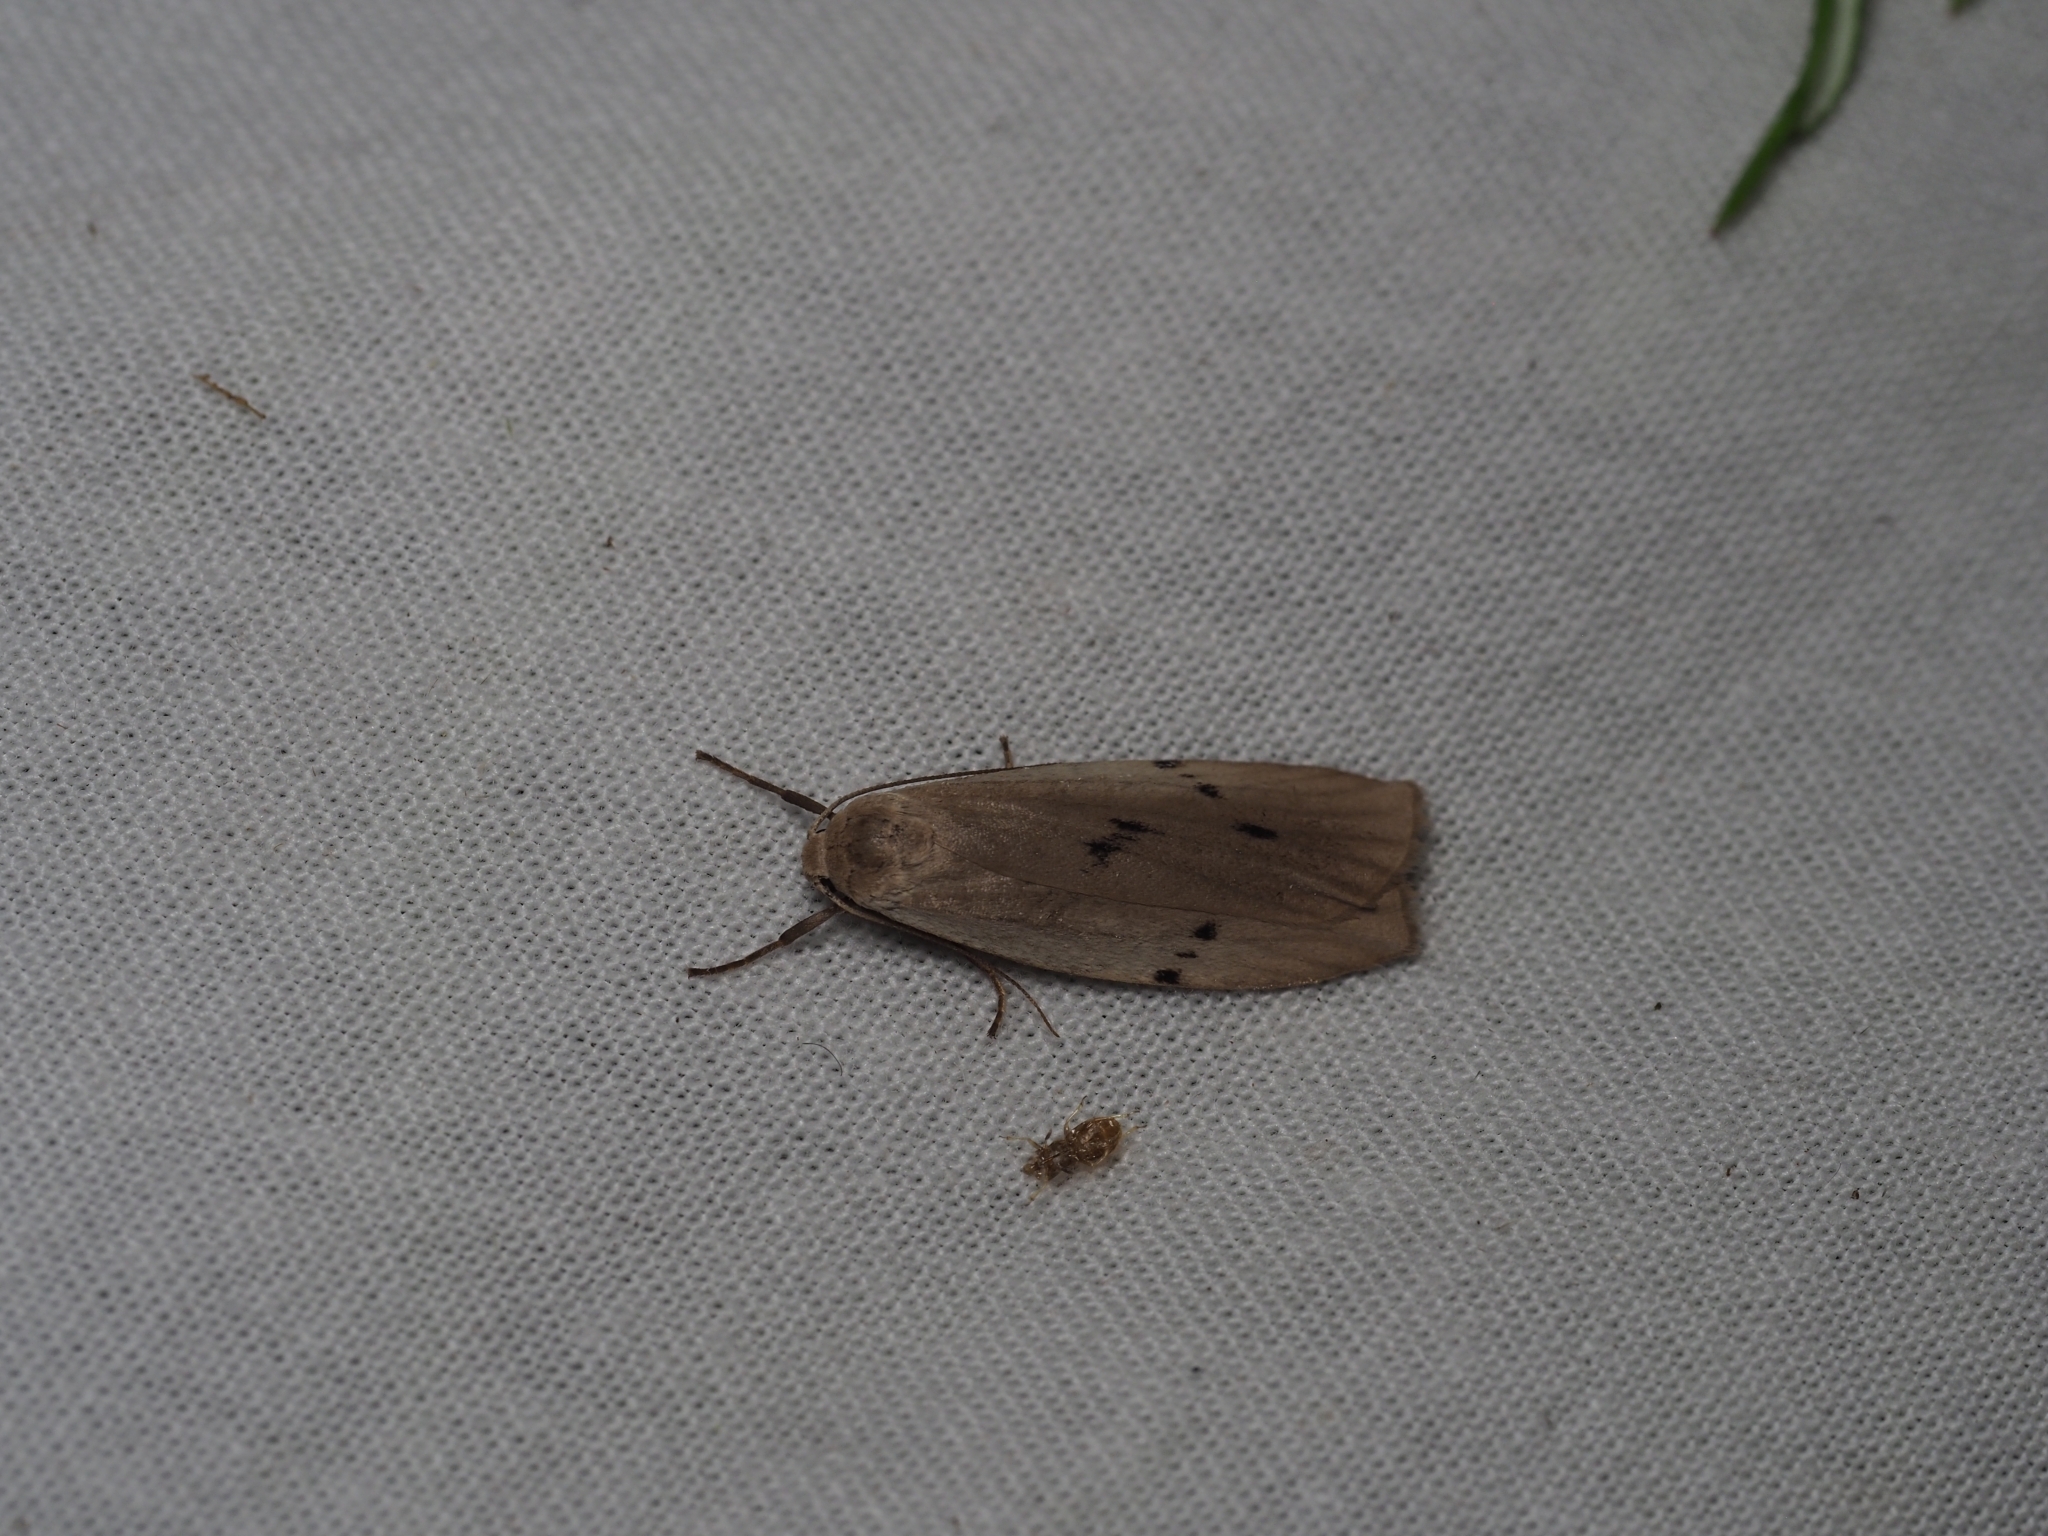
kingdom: Animalia
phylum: Arthropoda
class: Insecta
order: Lepidoptera
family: Erebidae
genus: Pelosia
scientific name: Pelosia muscerda
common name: Dotted footman
